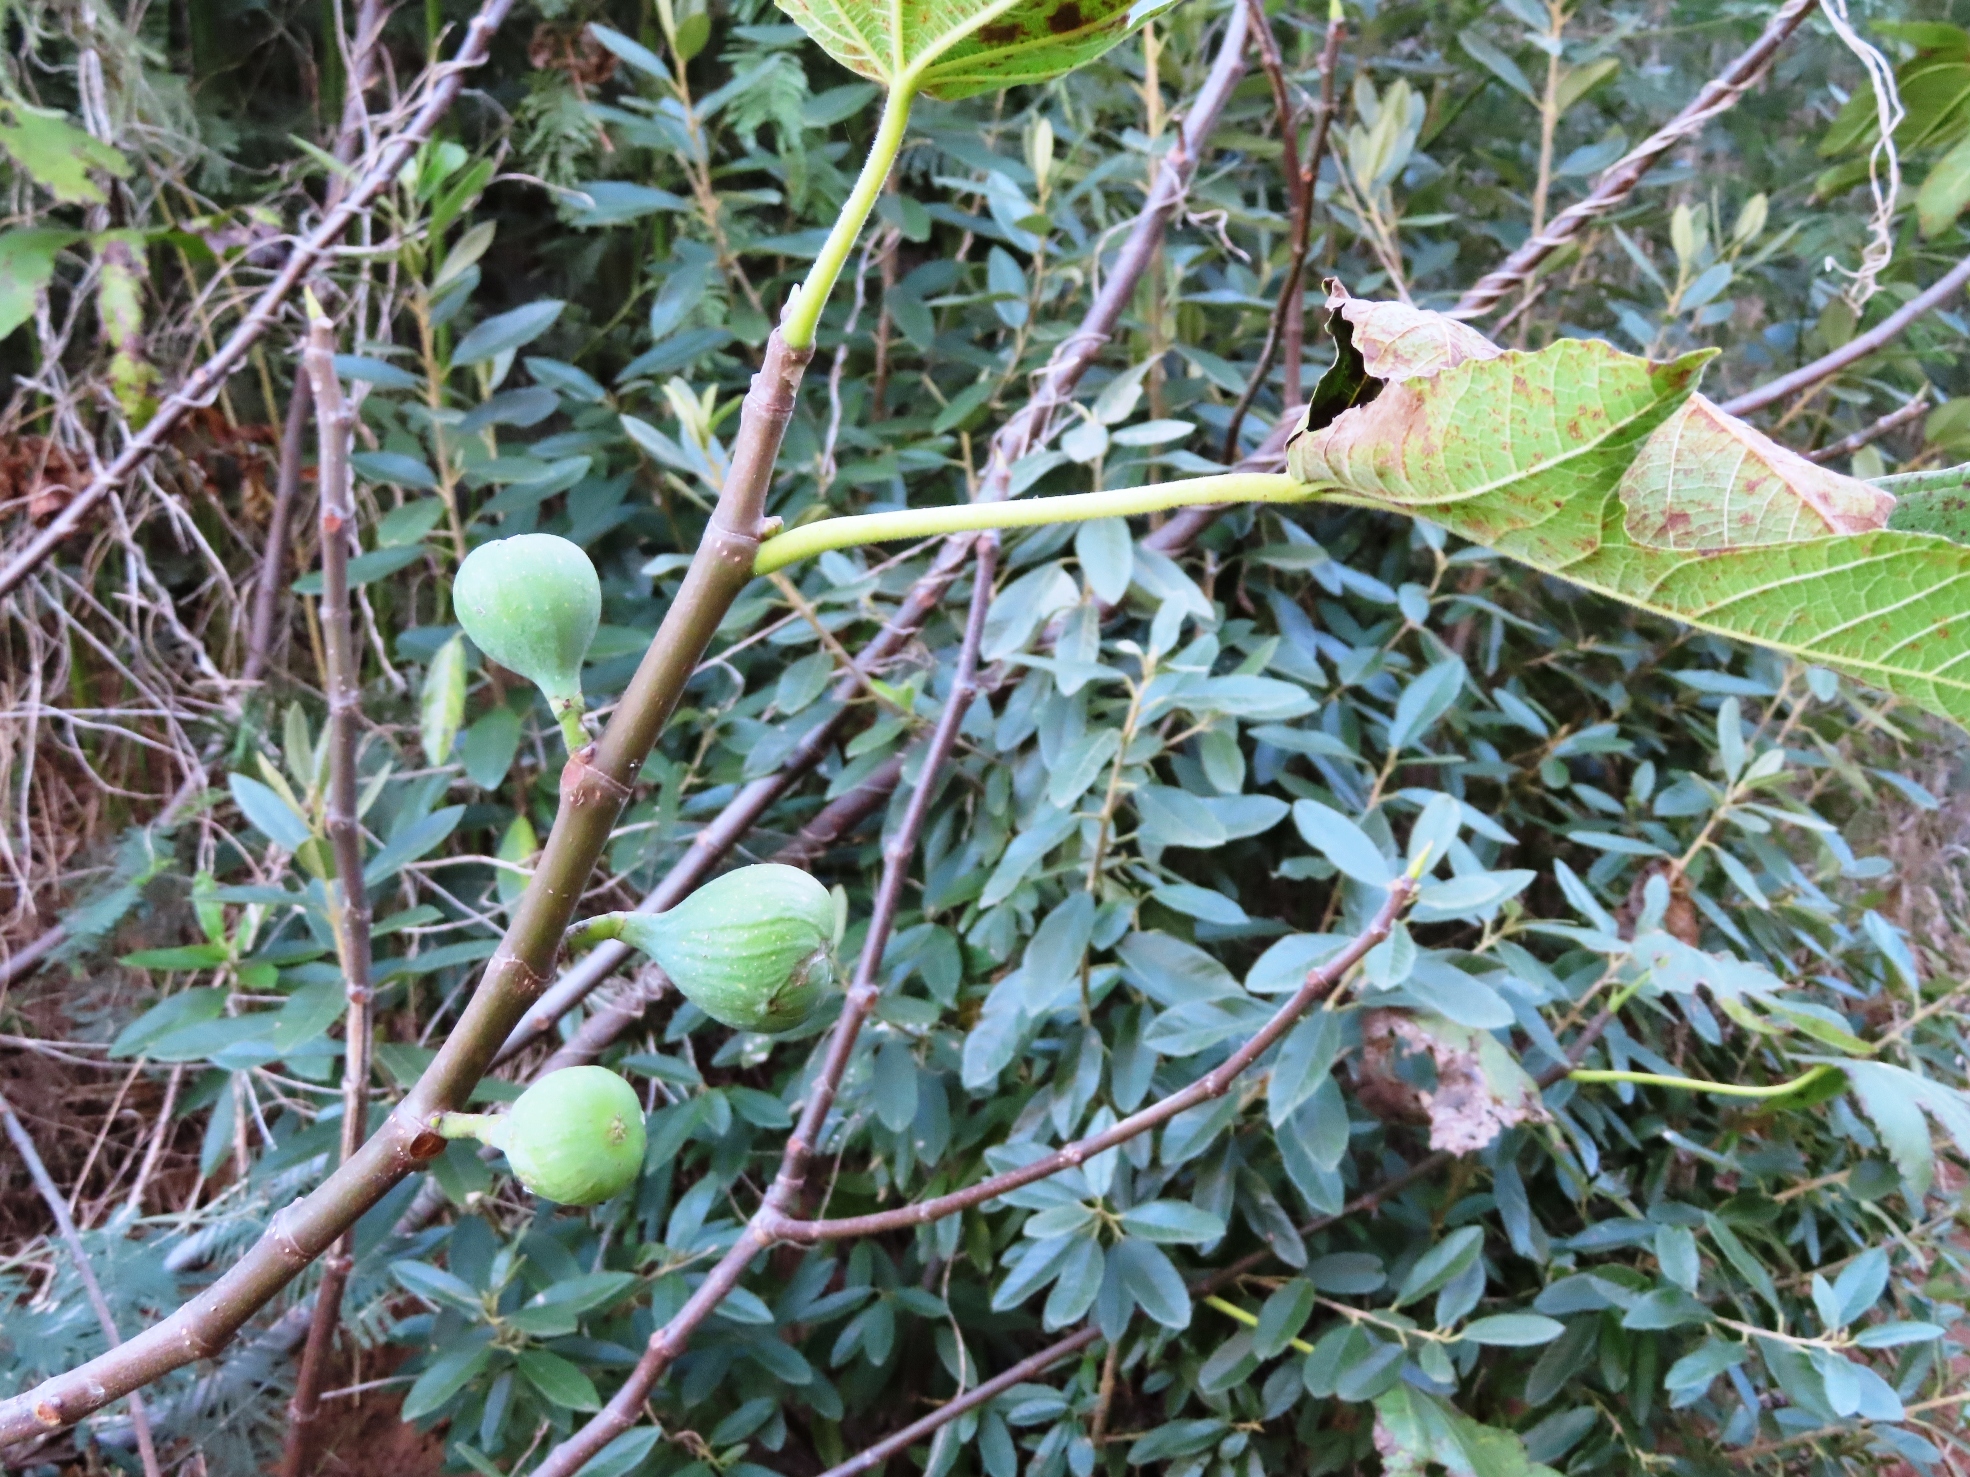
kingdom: Plantae
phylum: Tracheophyta
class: Magnoliopsida
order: Rosales
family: Moraceae
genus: Ficus
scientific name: Ficus carica
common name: Fig
